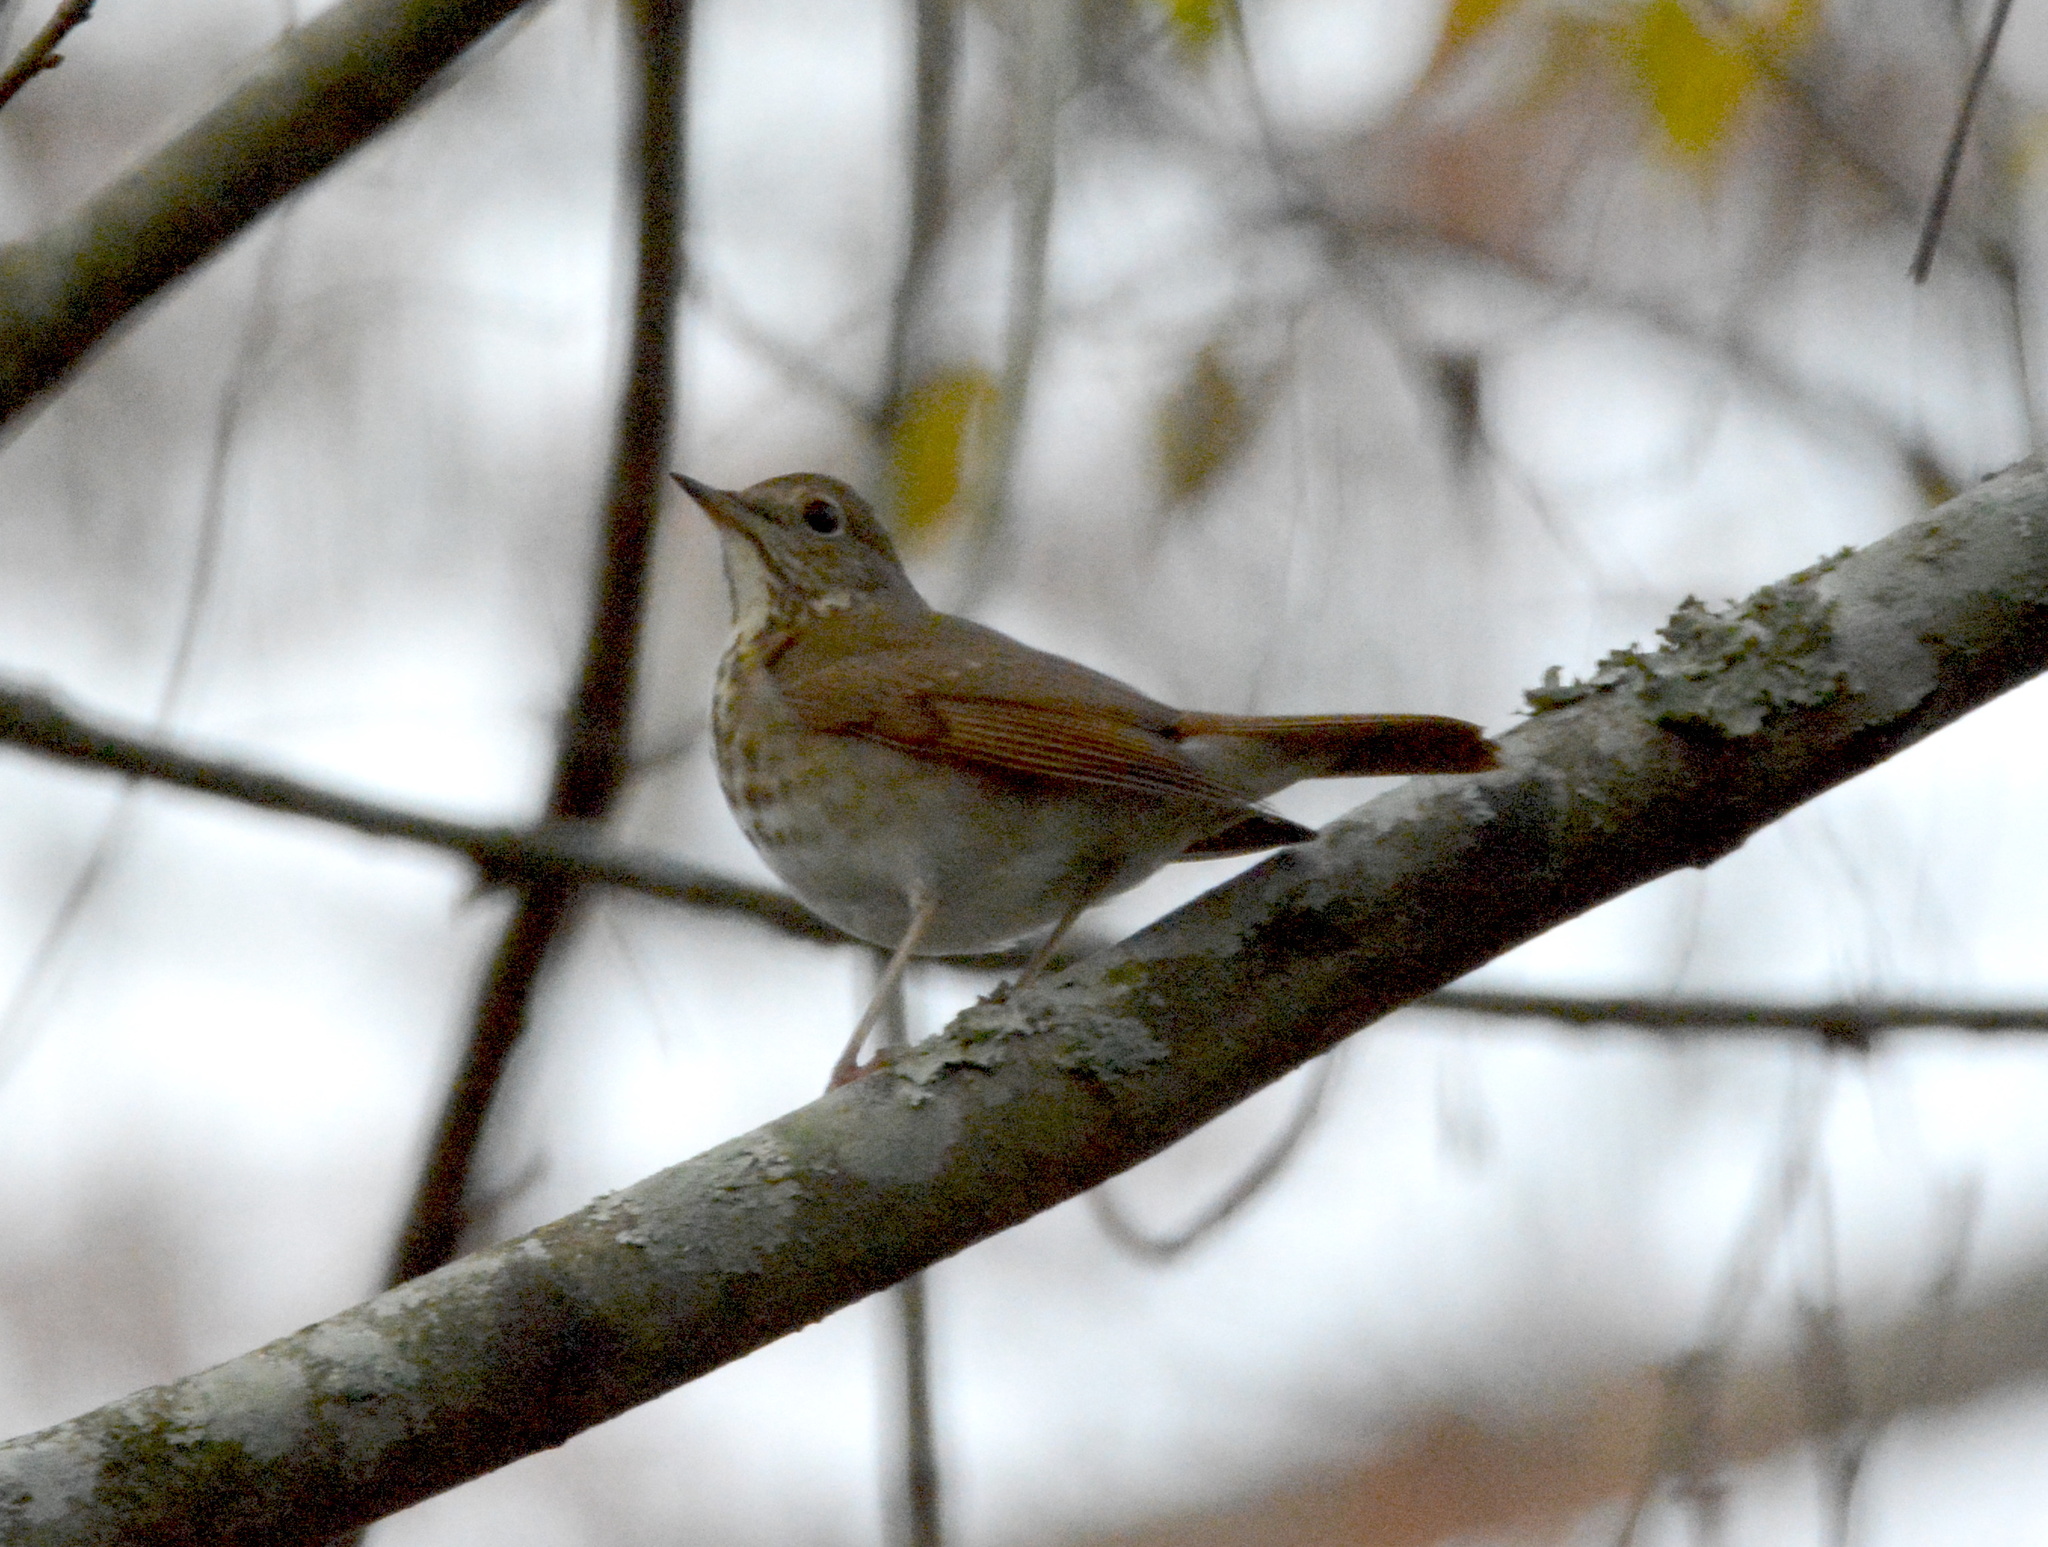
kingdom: Animalia
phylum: Chordata
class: Aves
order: Passeriformes
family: Turdidae
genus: Catharus
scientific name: Catharus guttatus
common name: Hermit thrush
